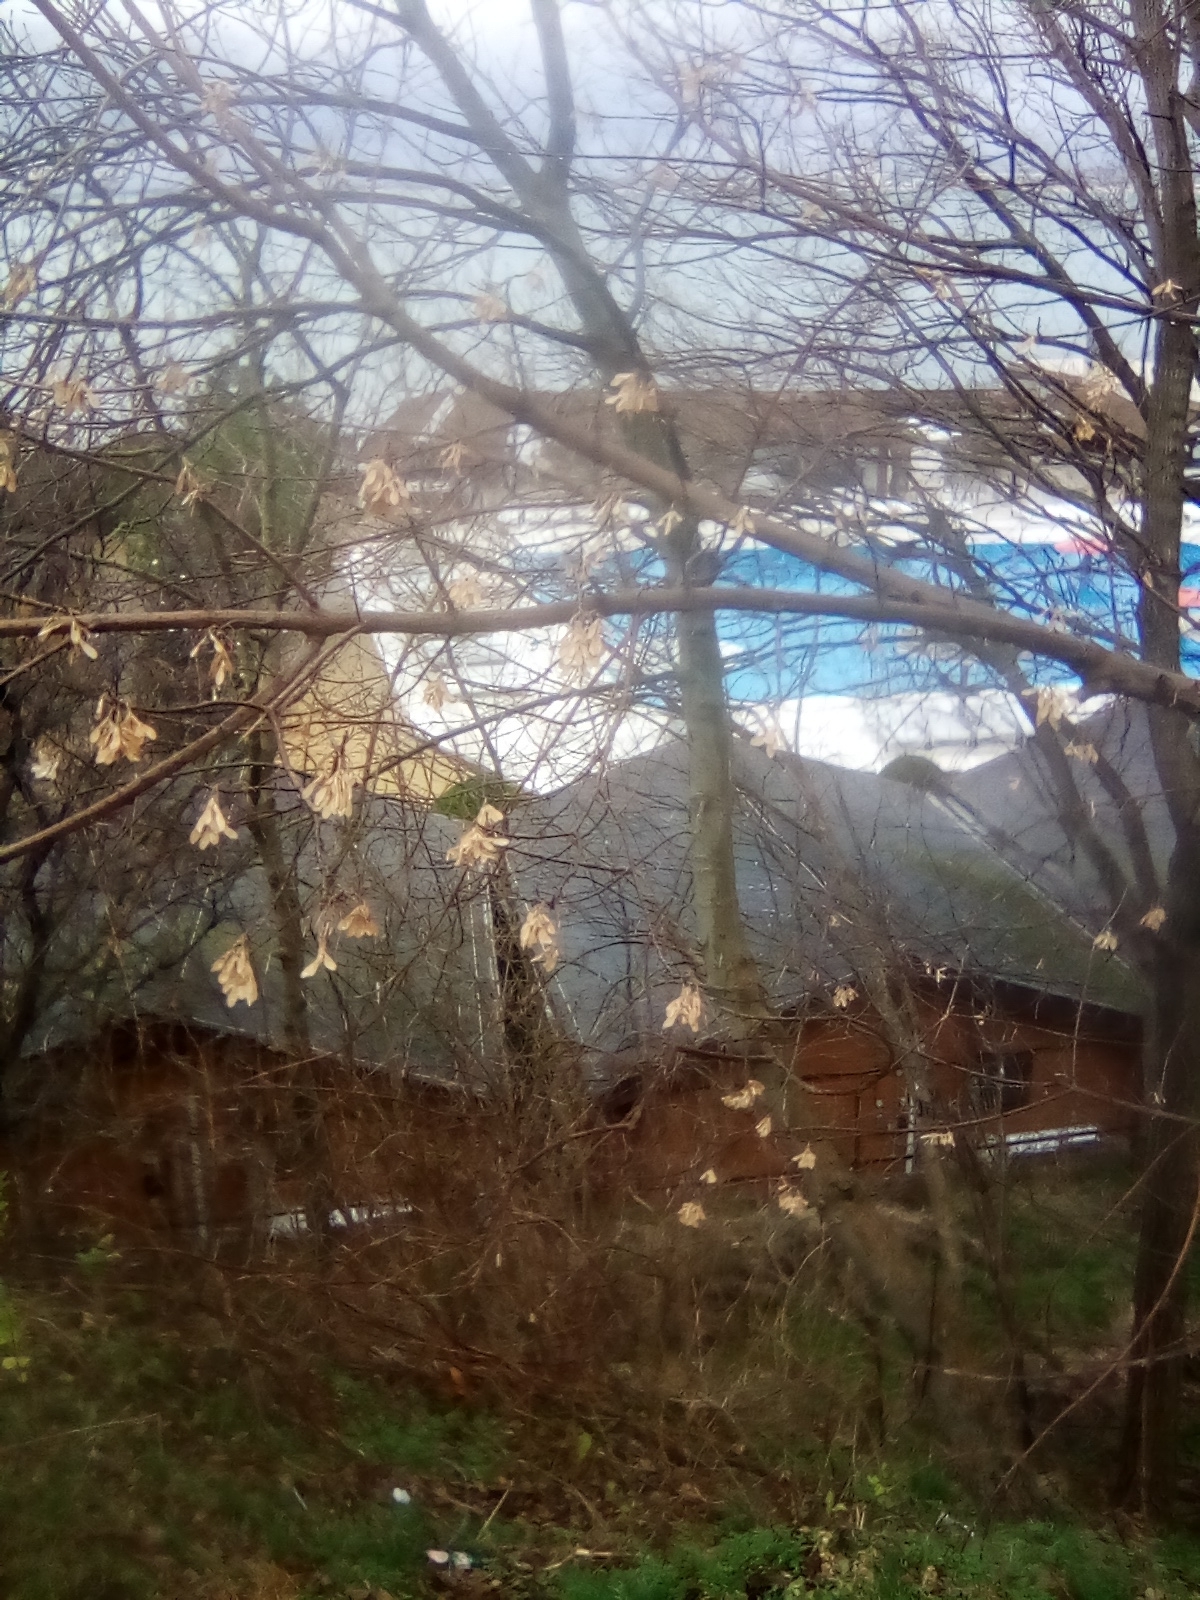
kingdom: Plantae
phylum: Tracheophyta
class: Magnoliopsida
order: Sapindales
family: Sapindaceae
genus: Acer
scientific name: Acer negundo
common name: Ashleaf maple
